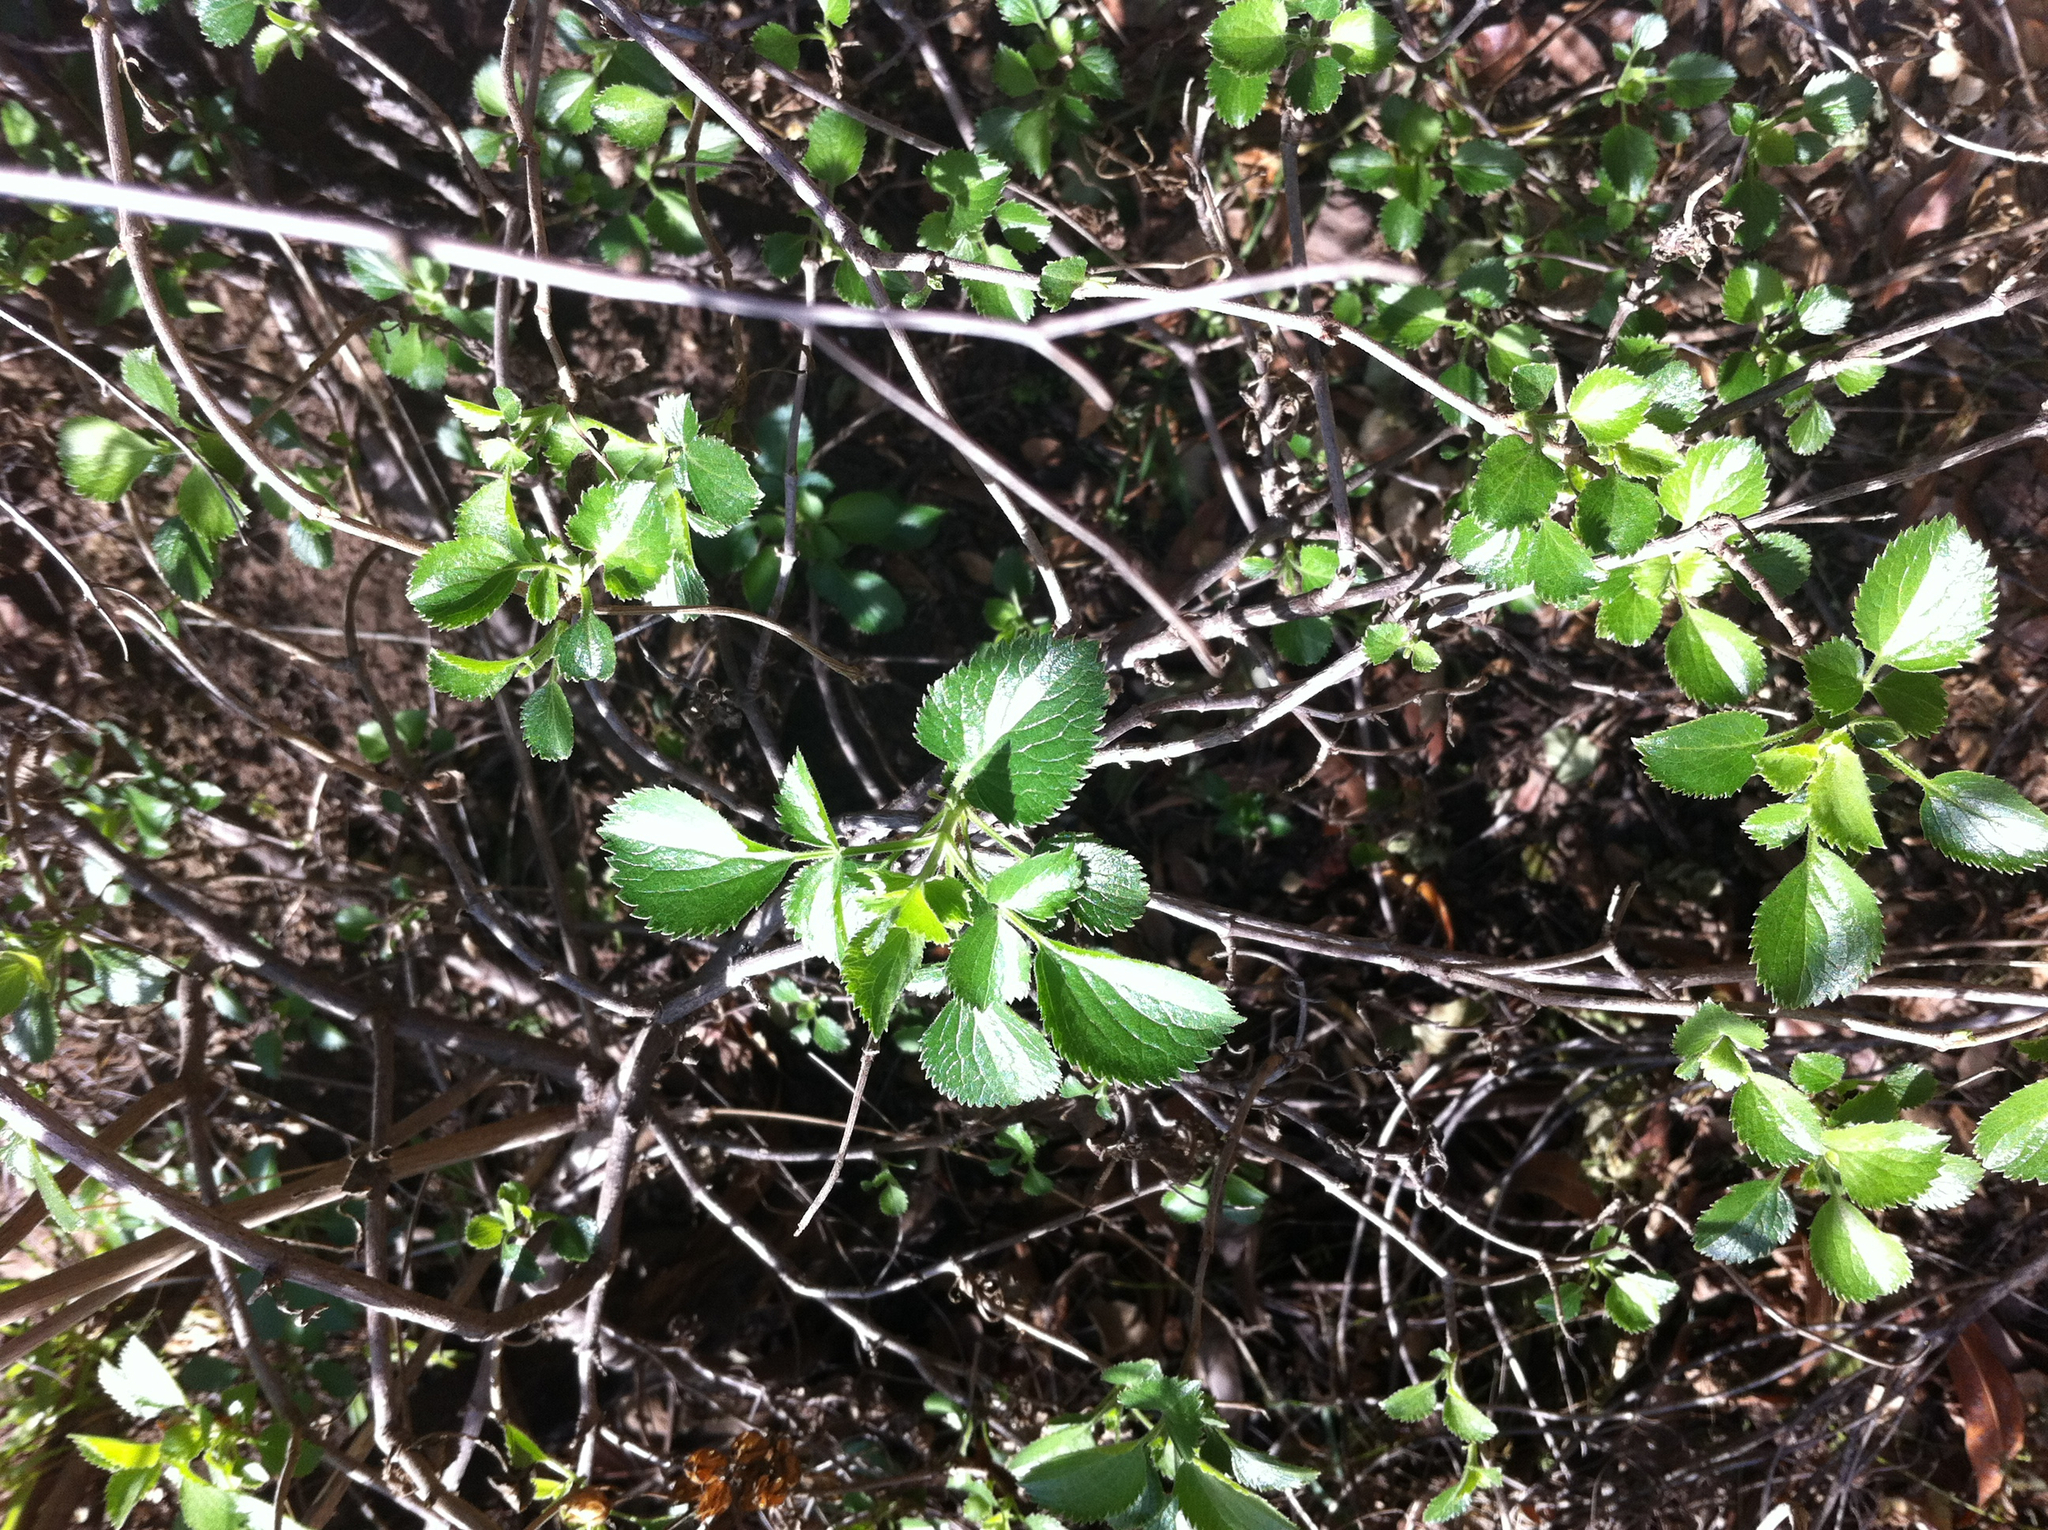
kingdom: Plantae
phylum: Tracheophyta
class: Magnoliopsida
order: Dipsacales
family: Viburnaceae
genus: Sambucus
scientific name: Sambucus cerulea
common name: Blue elder
